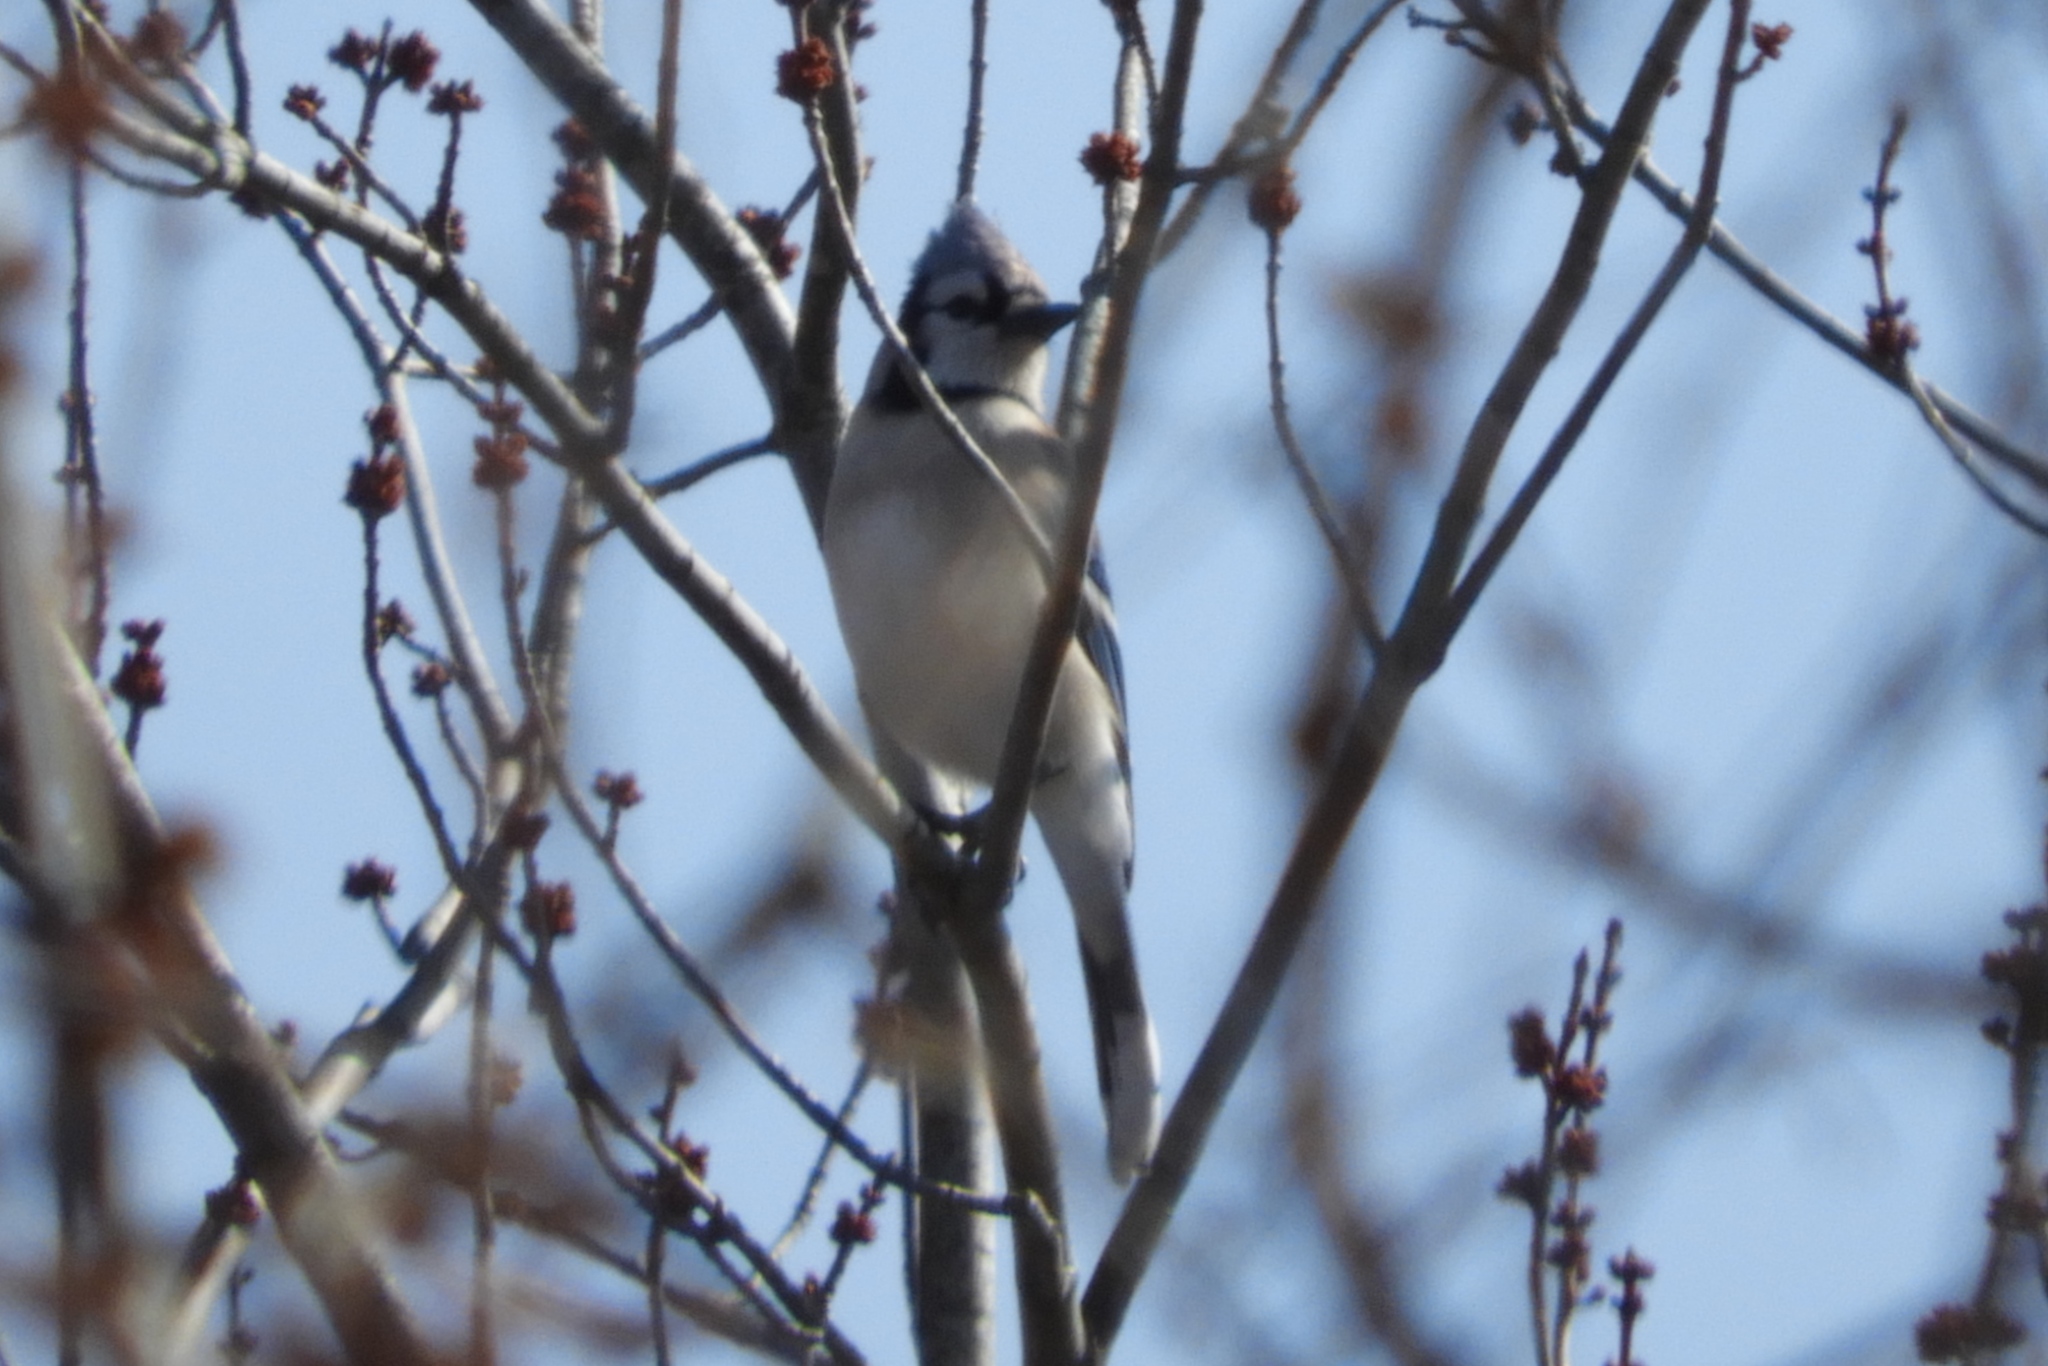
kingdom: Animalia
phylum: Chordata
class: Aves
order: Passeriformes
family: Corvidae
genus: Cyanocitta
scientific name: Cyanocitta cristata
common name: Blue jay
